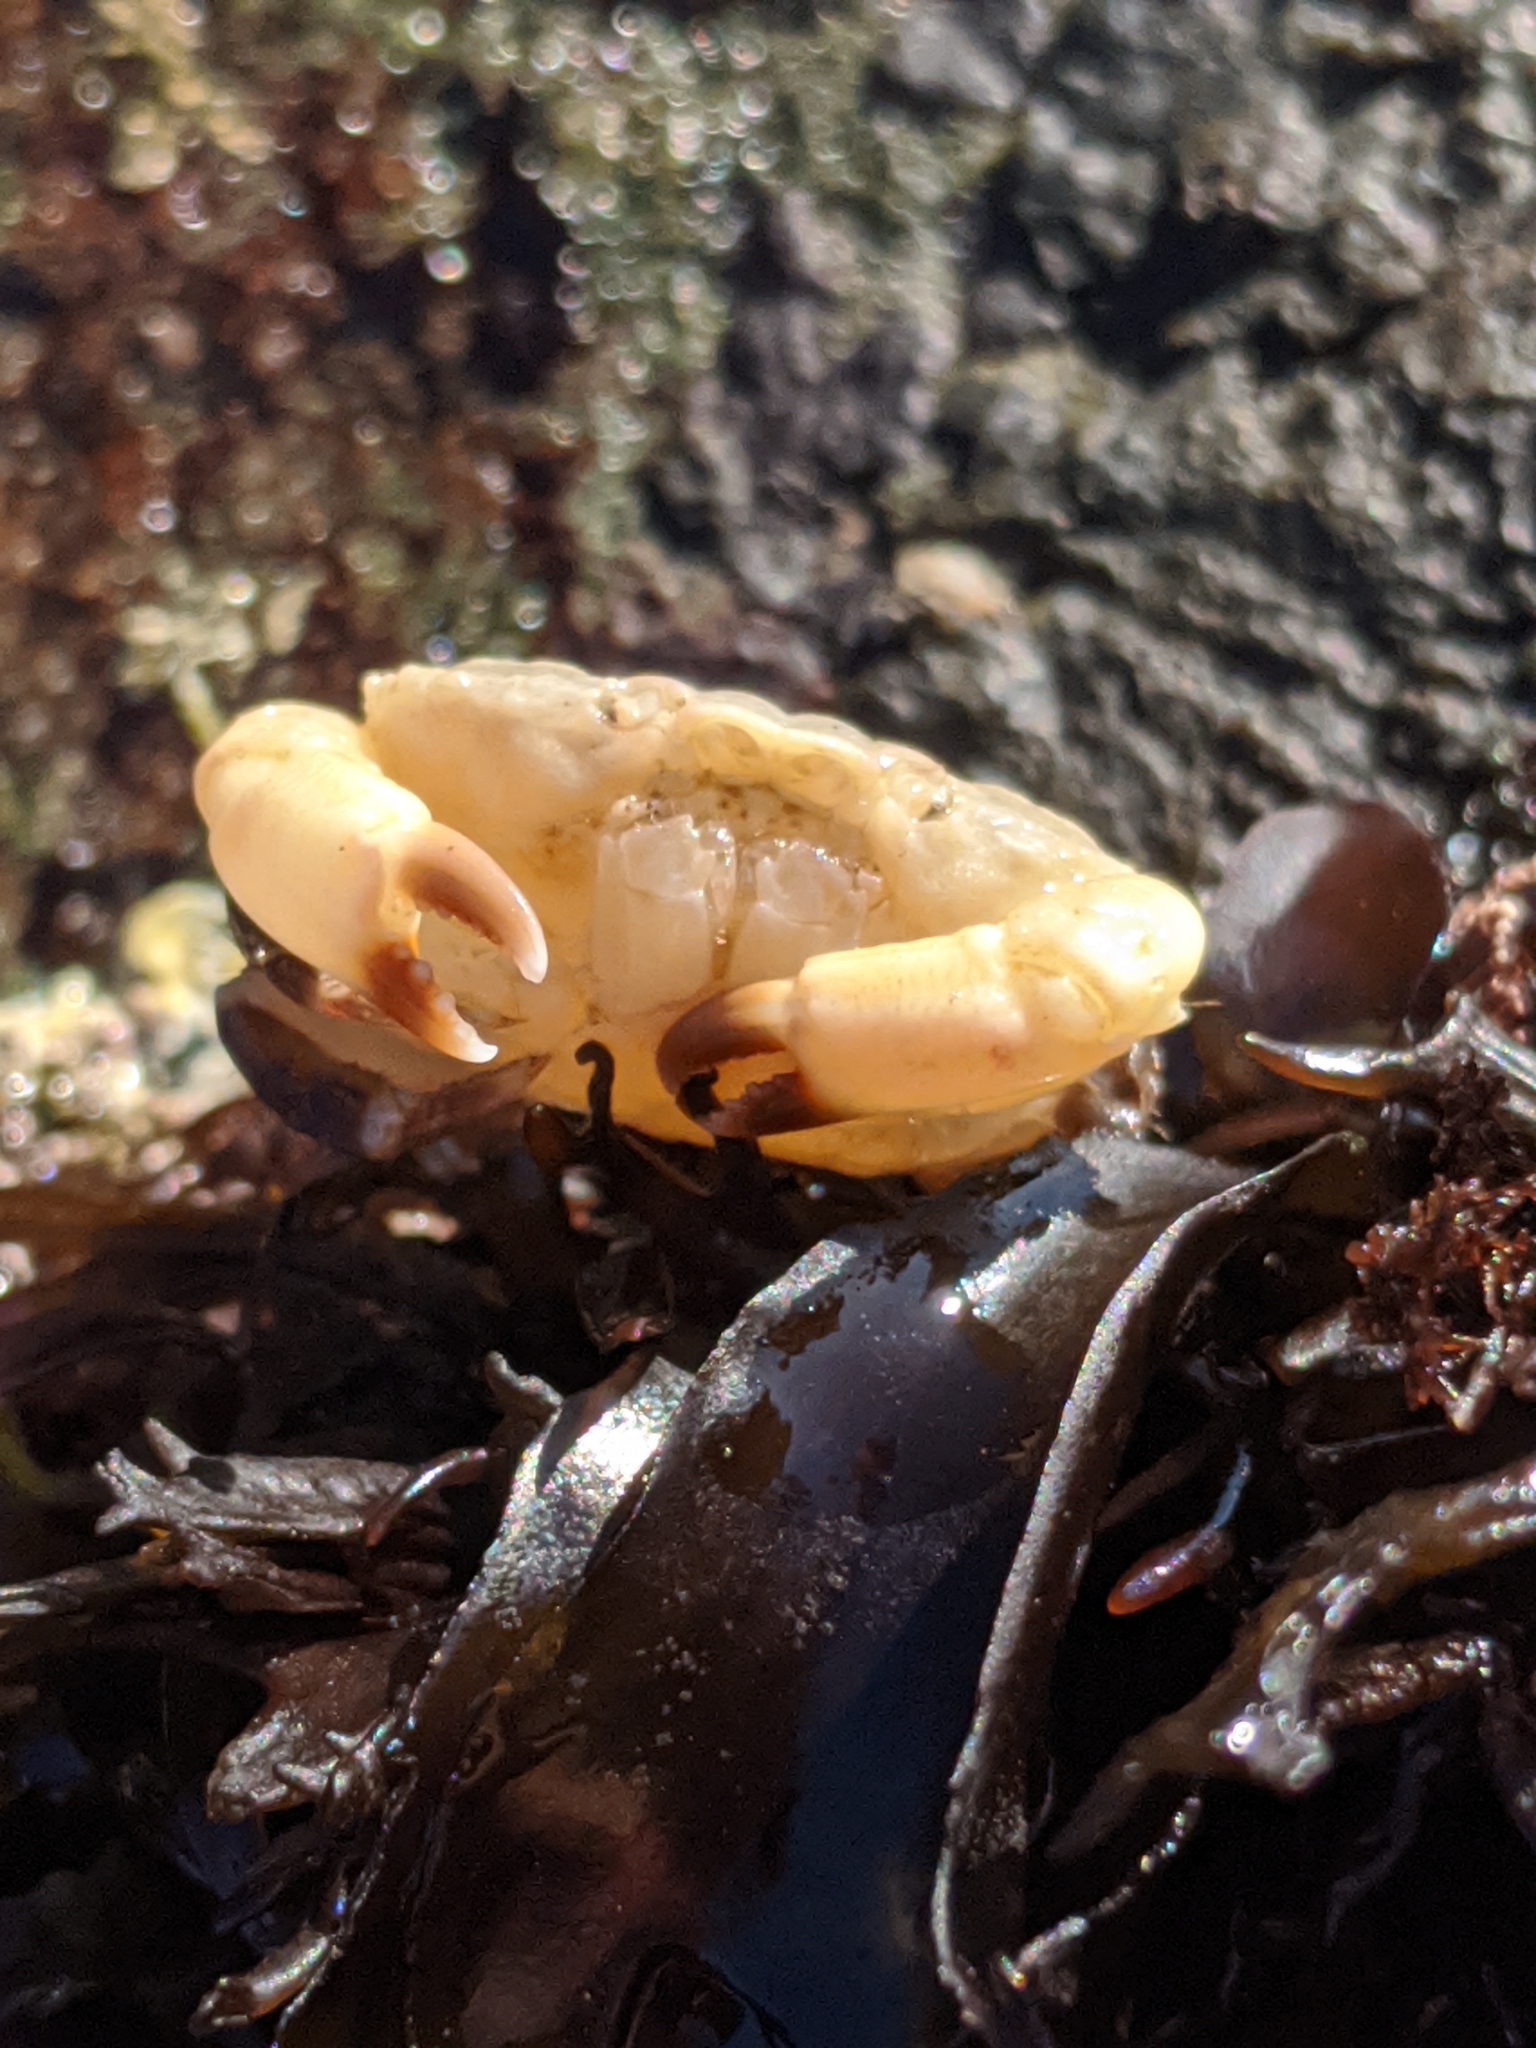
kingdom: Animalia
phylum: Arthropoda
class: Malacostraca
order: Decapoda
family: Xanthidae
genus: Cycloxanthops
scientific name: Cycloxanthops novemdentatus
